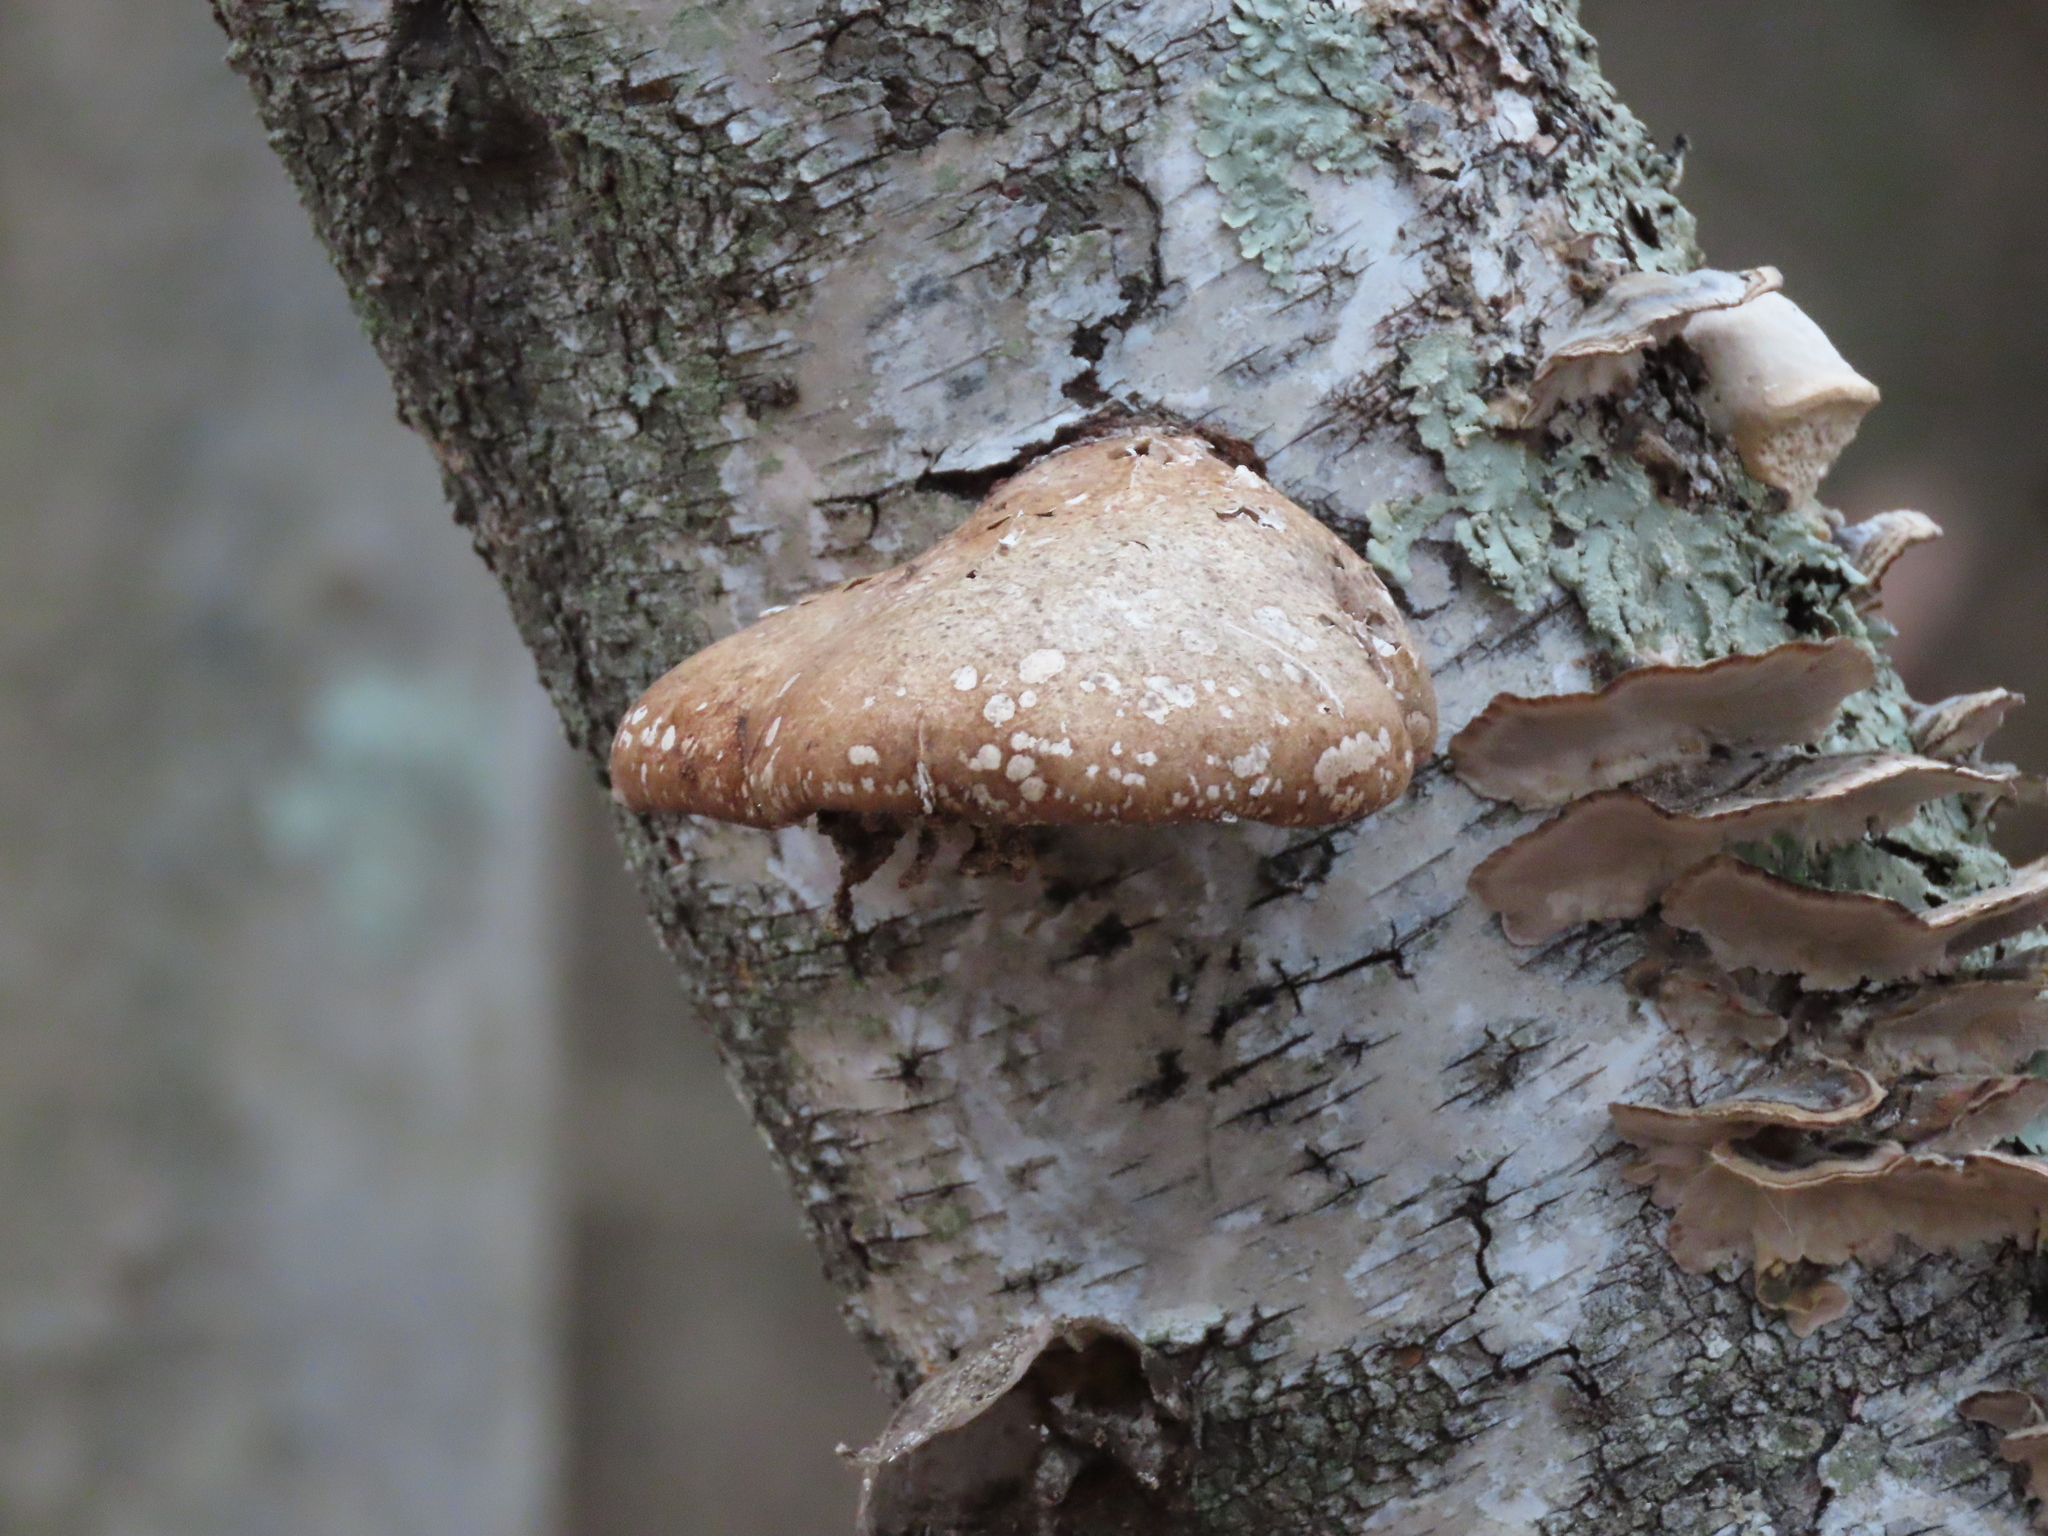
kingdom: Fungi
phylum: Basidiomycota
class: Agaricomycetes
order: Polyporales
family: Fomitopsidaceae
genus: Fomitopsis
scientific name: Fomitopsis betulina
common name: Birch polypore
